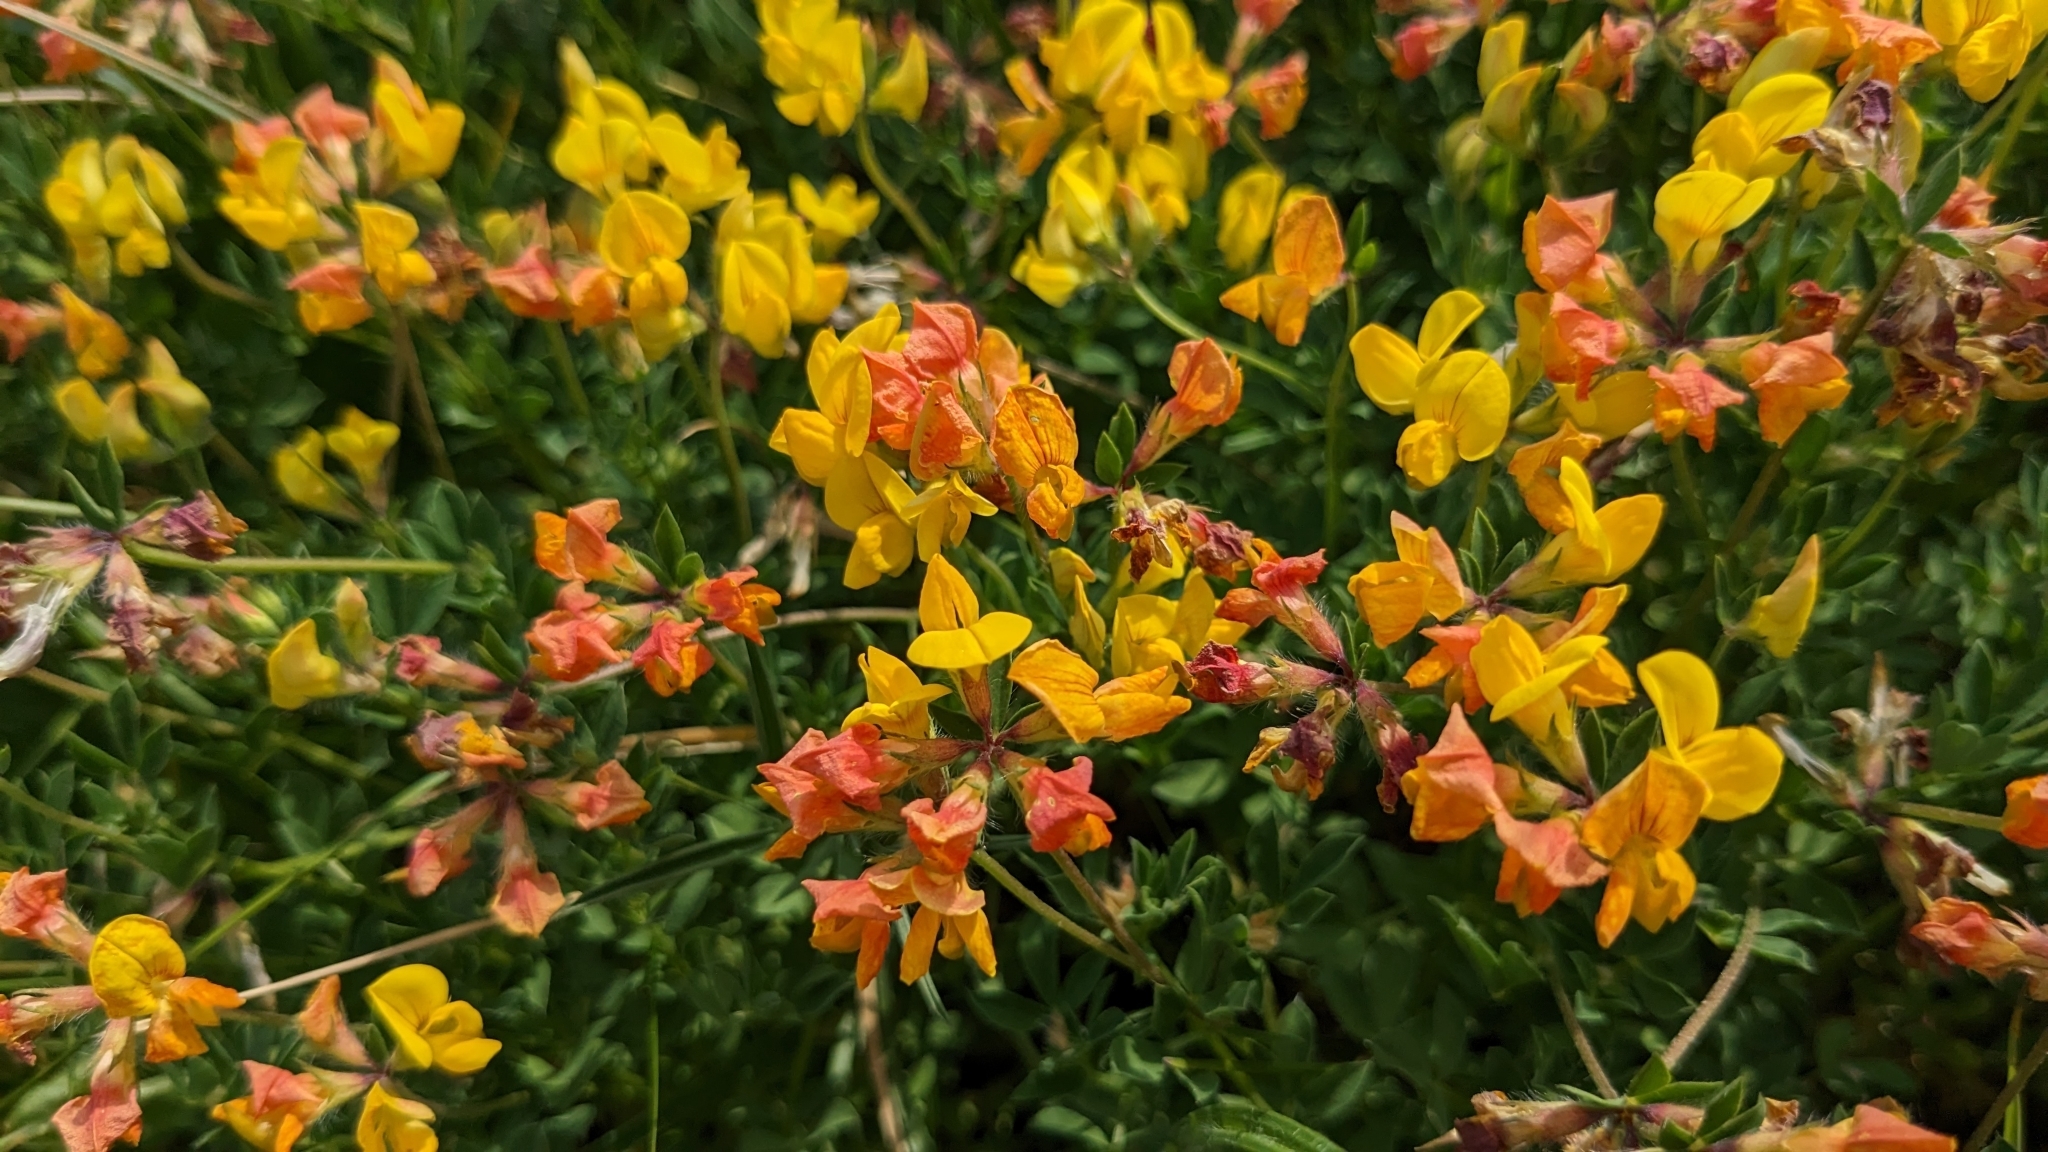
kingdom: Plantae
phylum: Tracheophyta
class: Magnoliopsida
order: Fabales
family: Fabaceae
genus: Lotus
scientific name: Lotus corniculatus
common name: Common bird's-foot-trefoil
